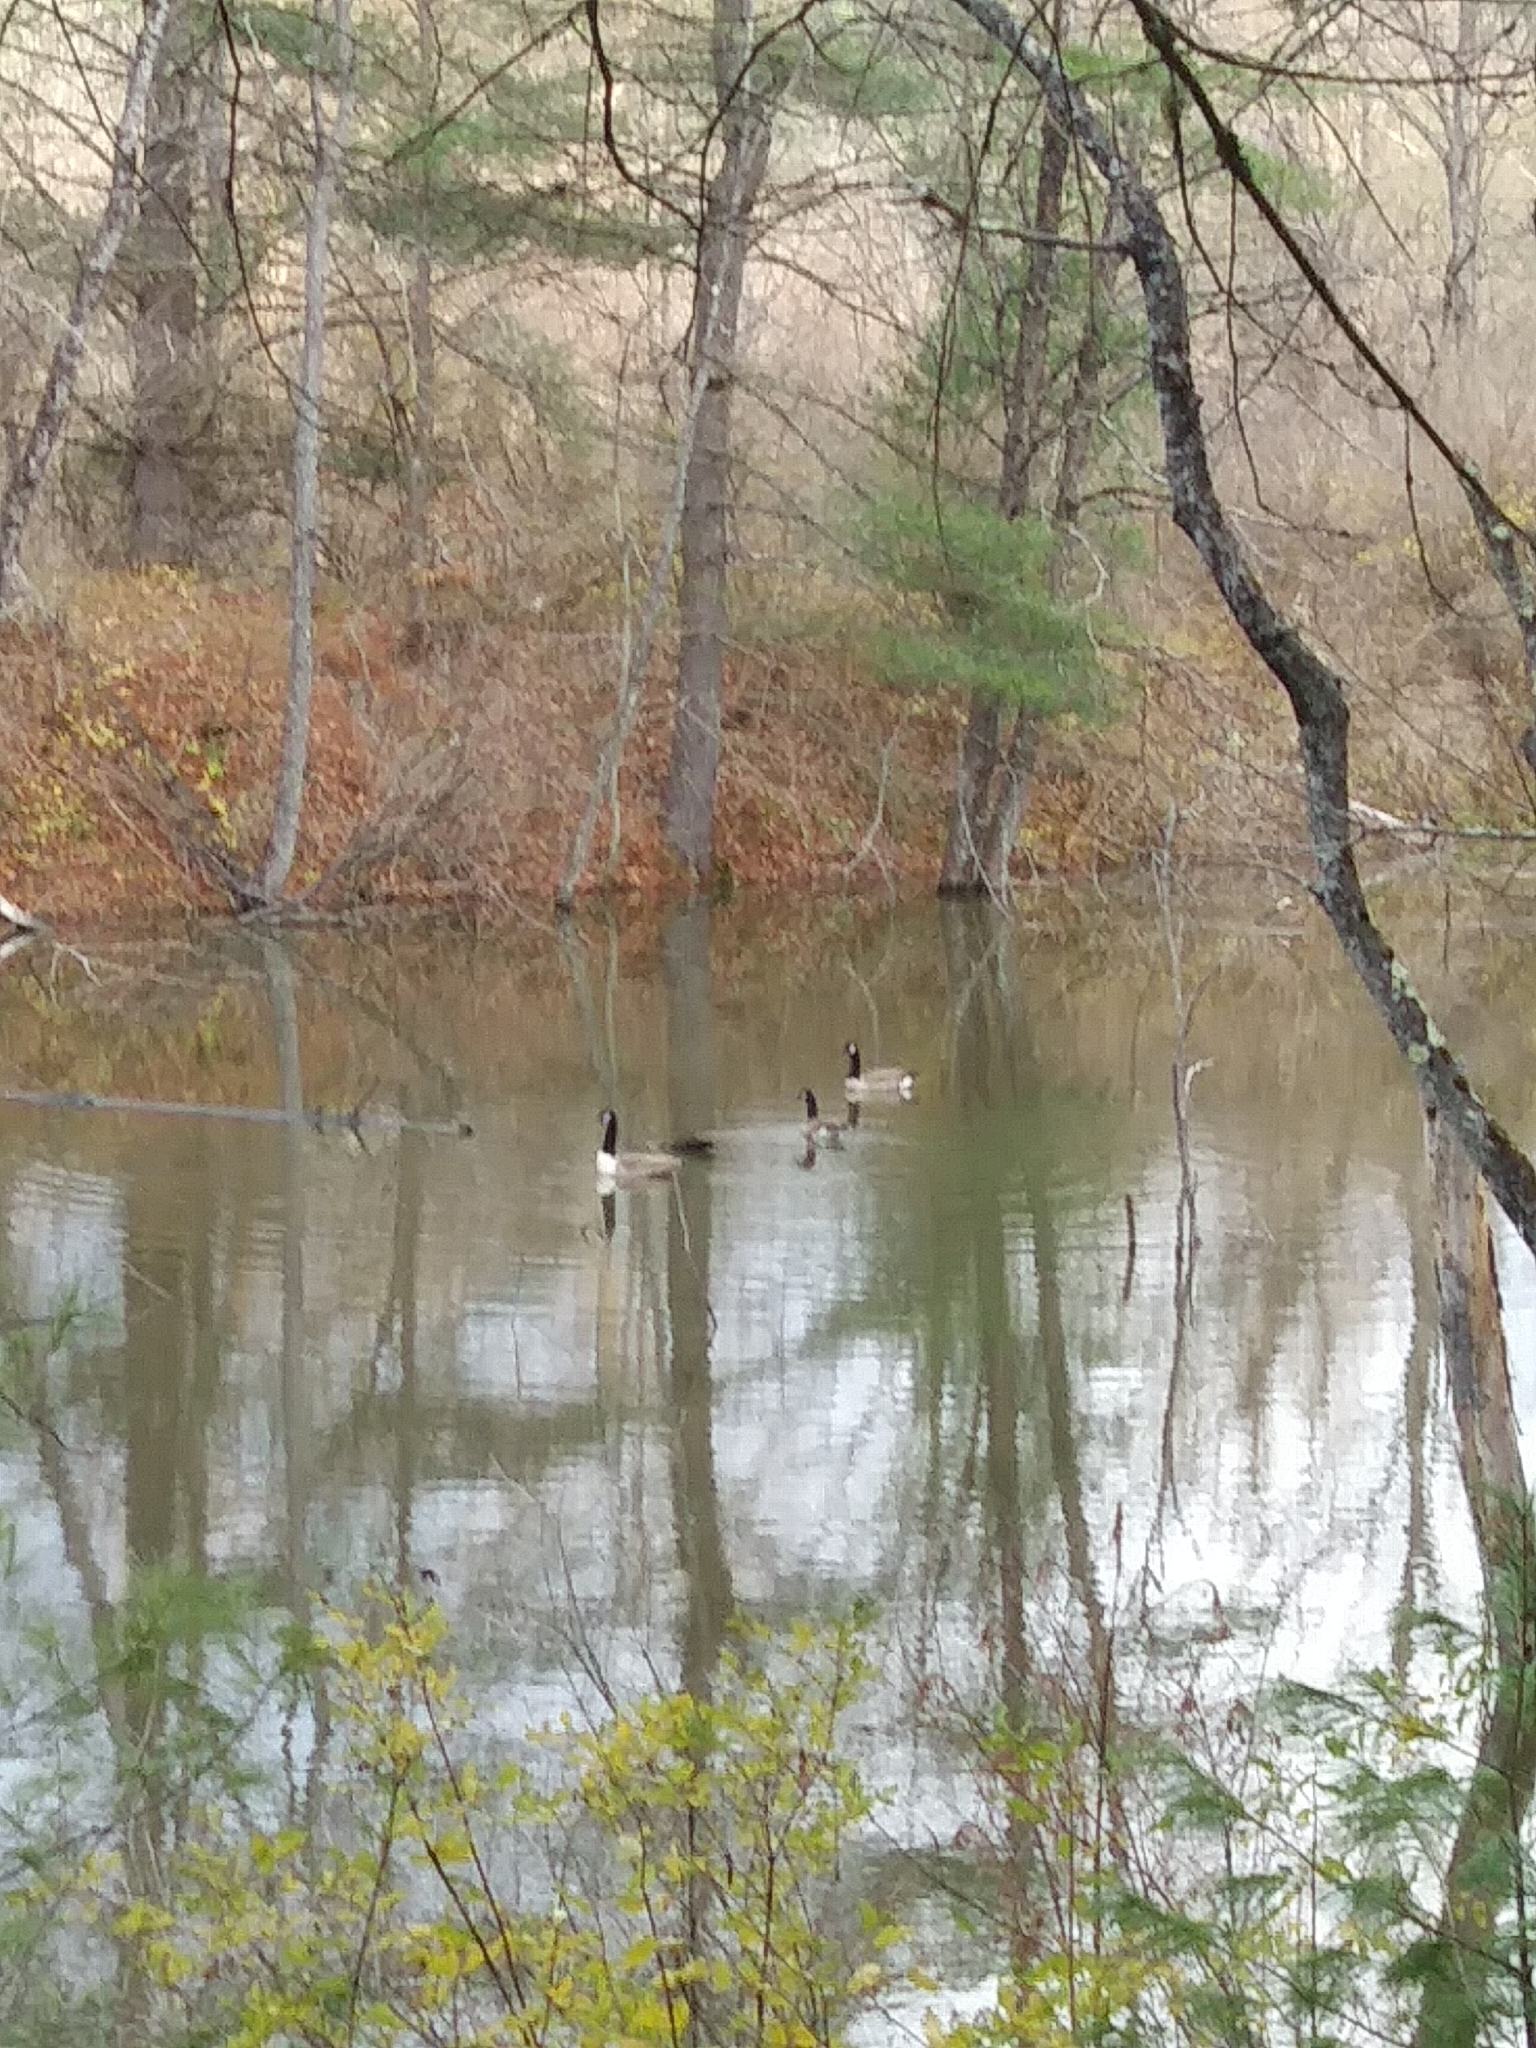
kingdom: Animalia
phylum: Chordata
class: Aves
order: Anseriformes
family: Anatidae
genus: Branta
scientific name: Branta canadensis
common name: Canada goose
